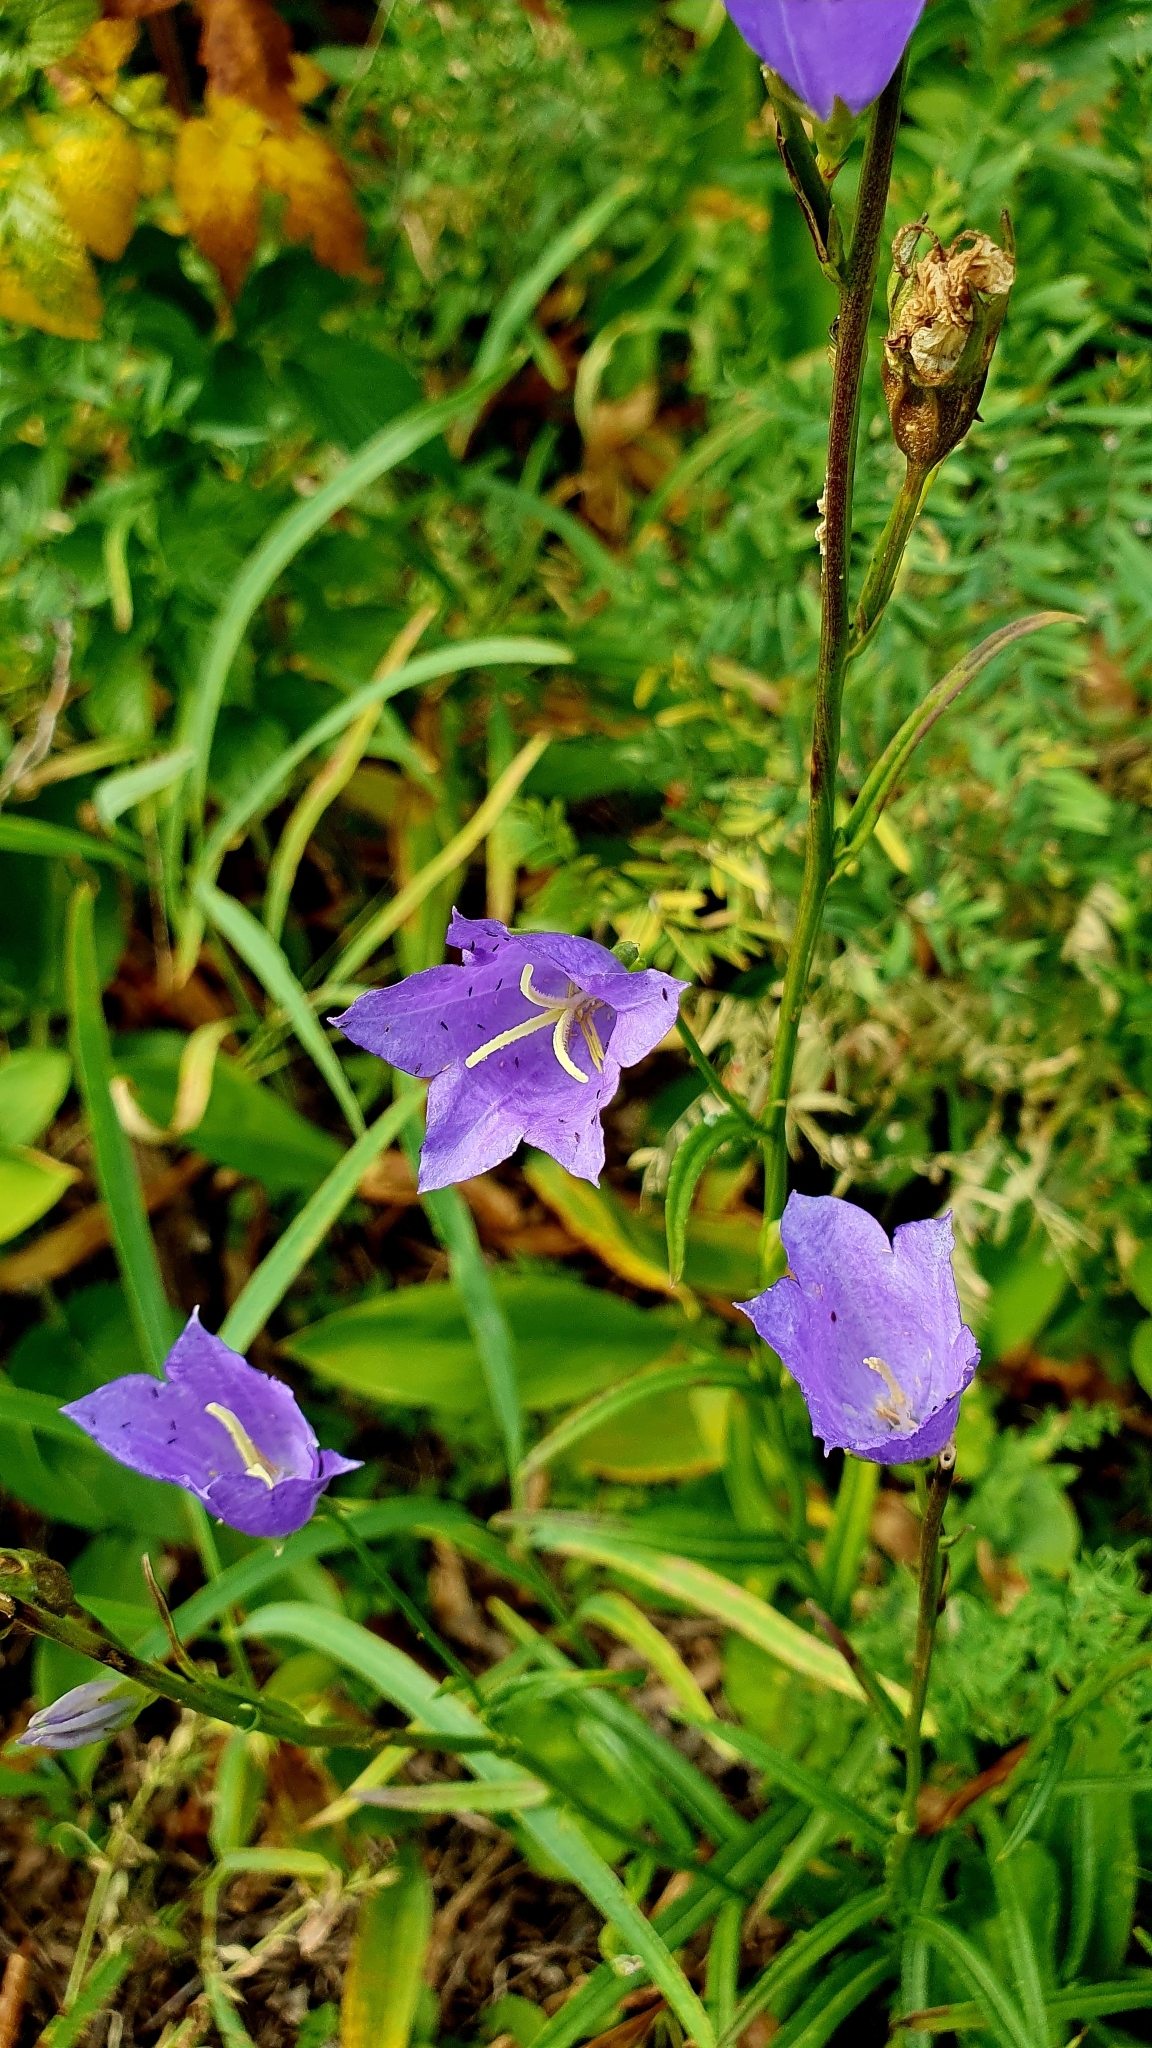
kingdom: Plantae
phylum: Tracheophyta
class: Magnoliopsida
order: Asterales
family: Campanulaceae
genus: Campanula
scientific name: Campanula persicifolia
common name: Peach-leaved bellflower
